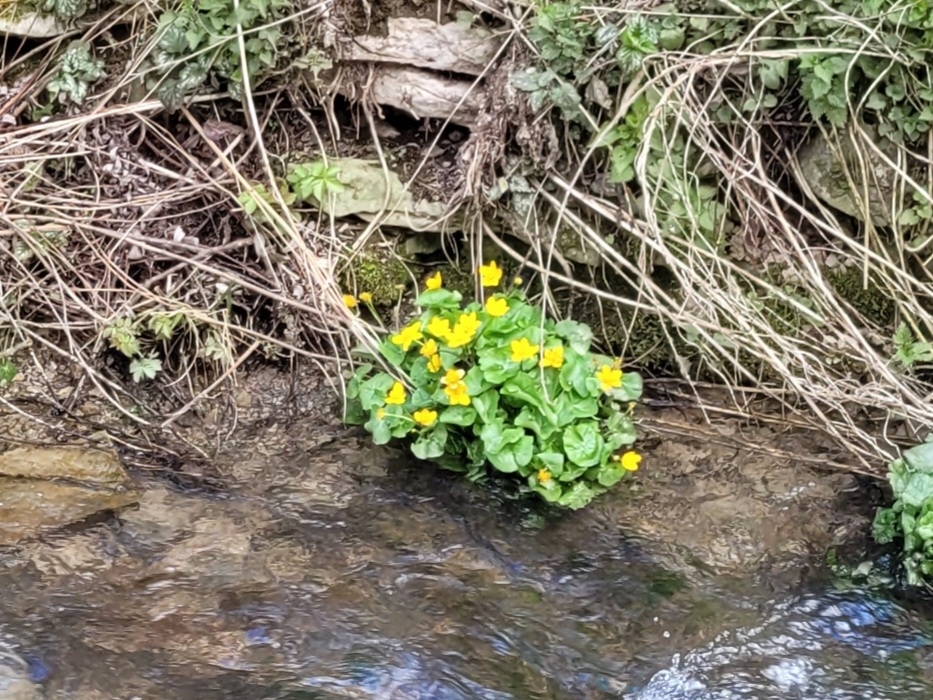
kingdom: Plantae
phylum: Tracheophyta
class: Magnoliopsida
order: Ranunculales
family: Ranunculaceae
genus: Caltha
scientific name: Caltha palustris
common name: Marsh marigold
